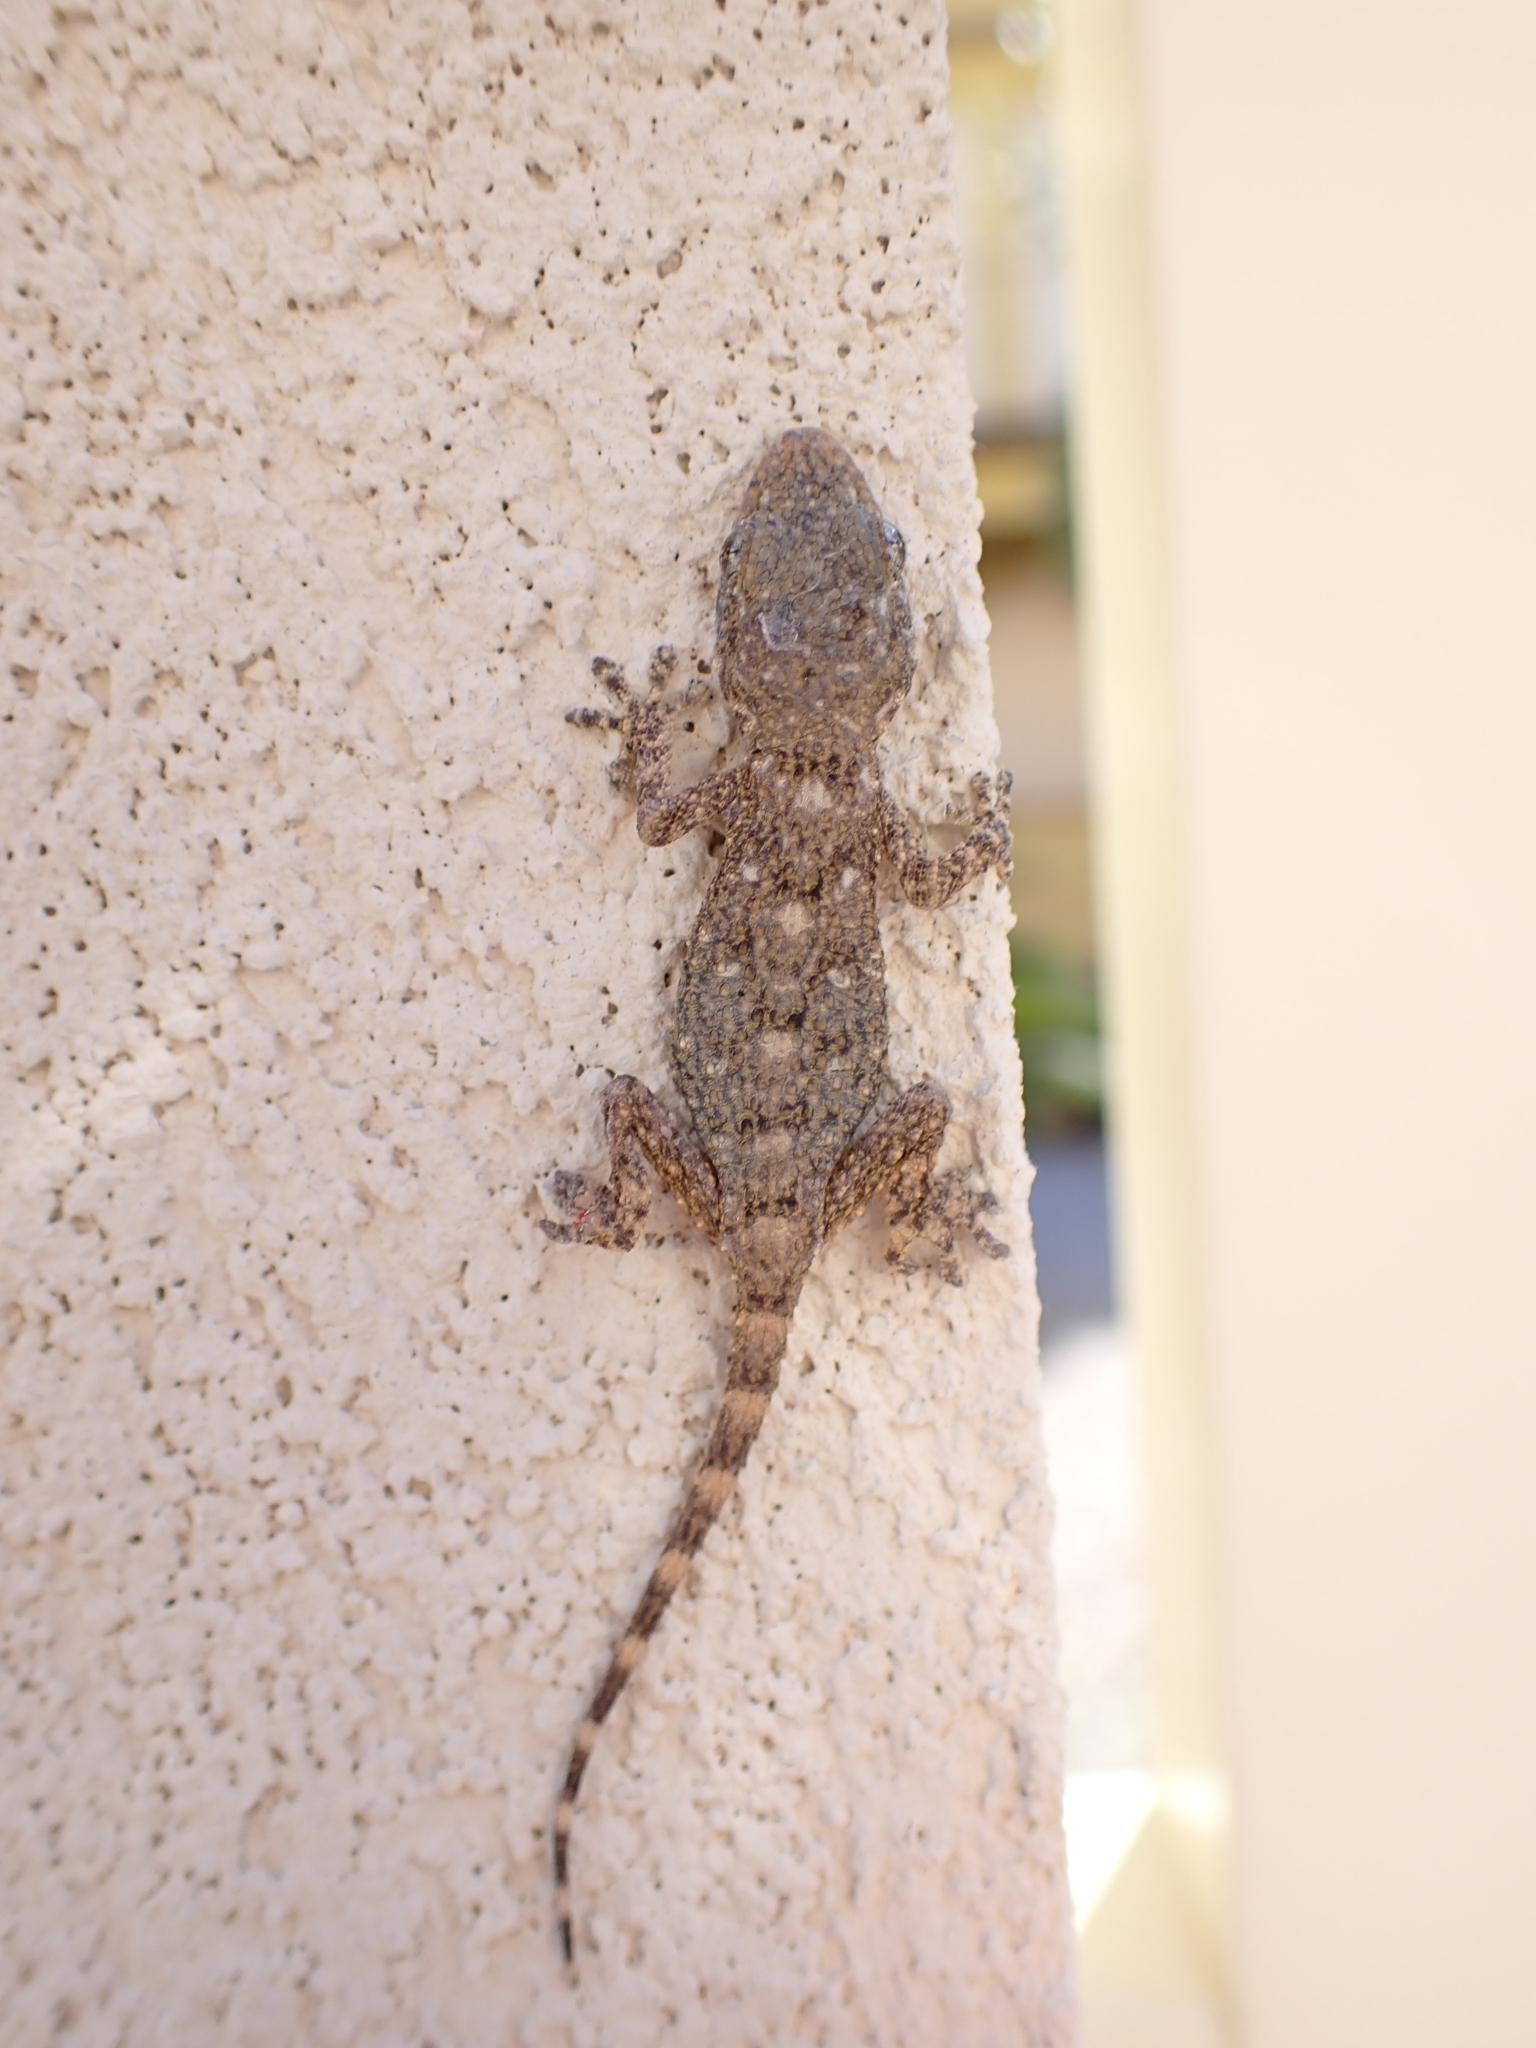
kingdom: Animalia
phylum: Chordata
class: Squamata
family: Phyllodactylidae
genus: Tarentola
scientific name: Tarentola mauritanica
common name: Moorish gecko
